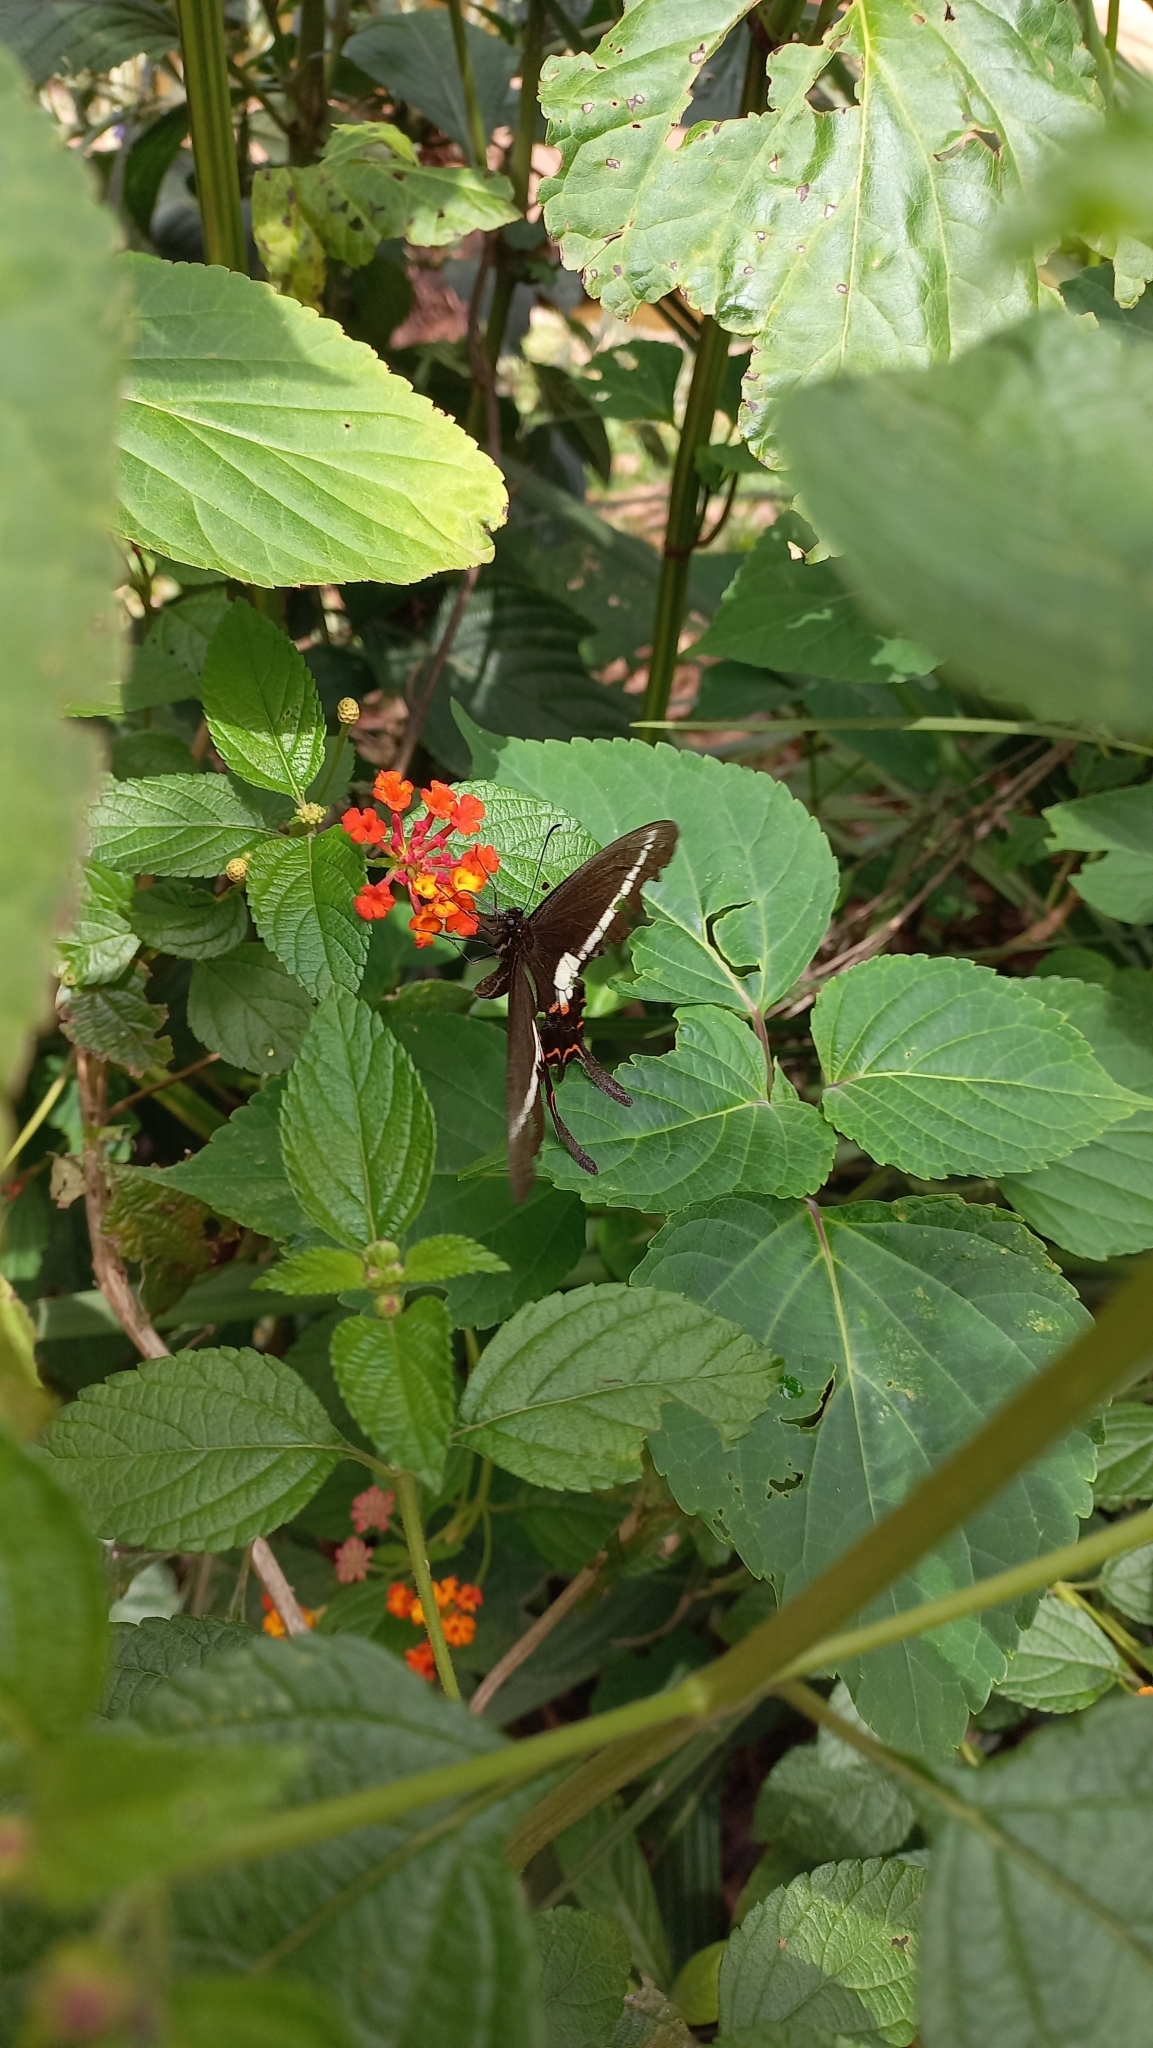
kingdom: Animalia
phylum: Arthropoda
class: Insecta
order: Lepidoptera
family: Papilionidae
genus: Heraclides
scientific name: Heraclides hectorides
